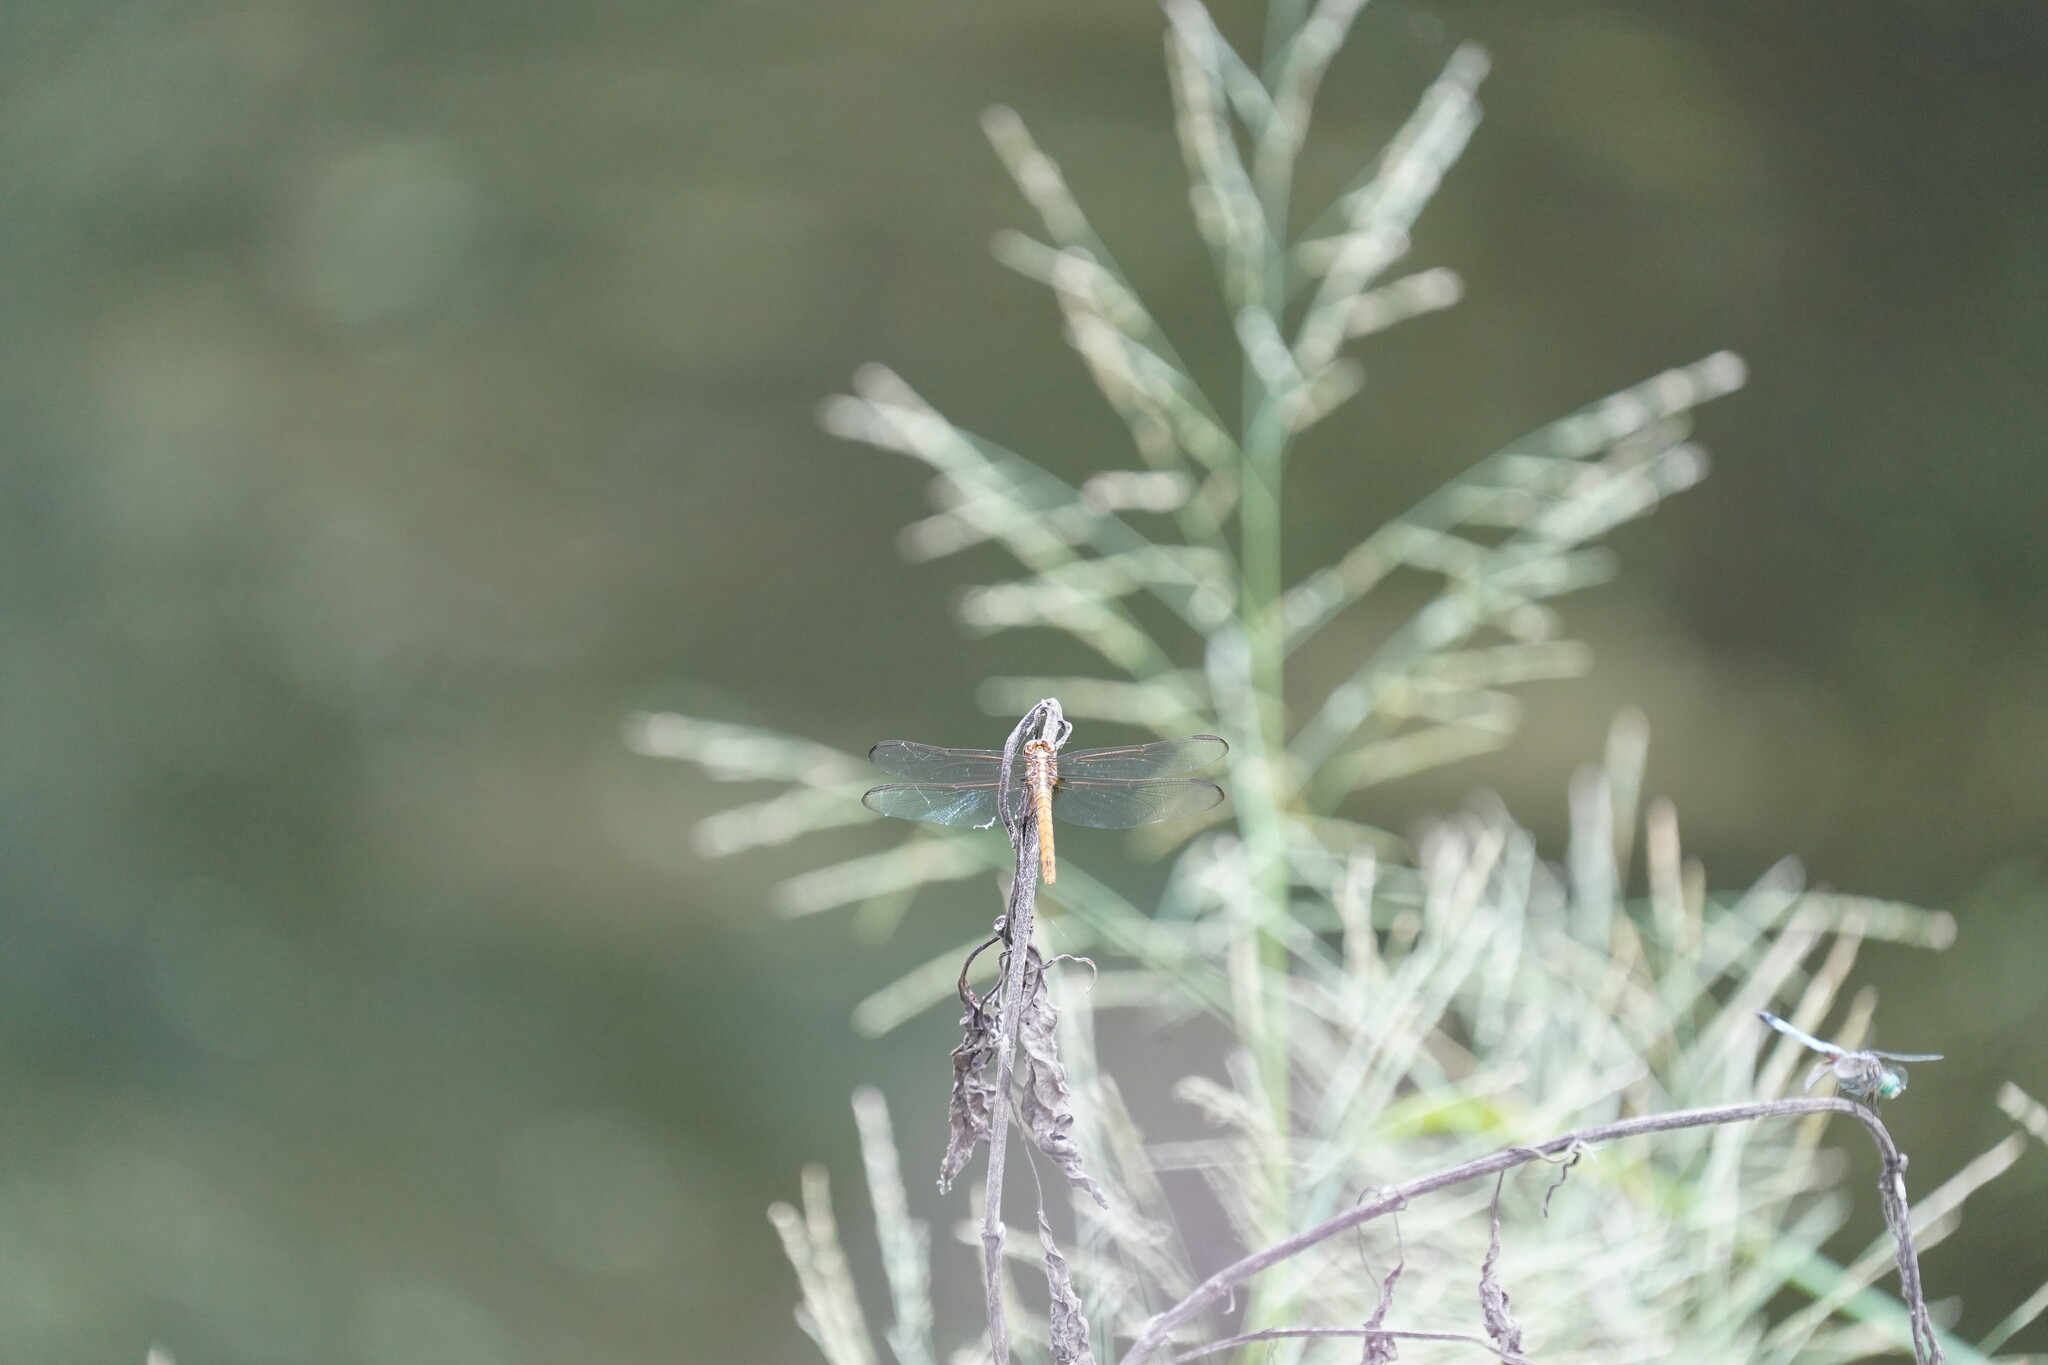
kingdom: Animalia
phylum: Arthropoda
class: Insecta
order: Odonata
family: Libellulidae
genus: Orthemis
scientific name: Orthemis ferruginea
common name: Roseate skimmer
